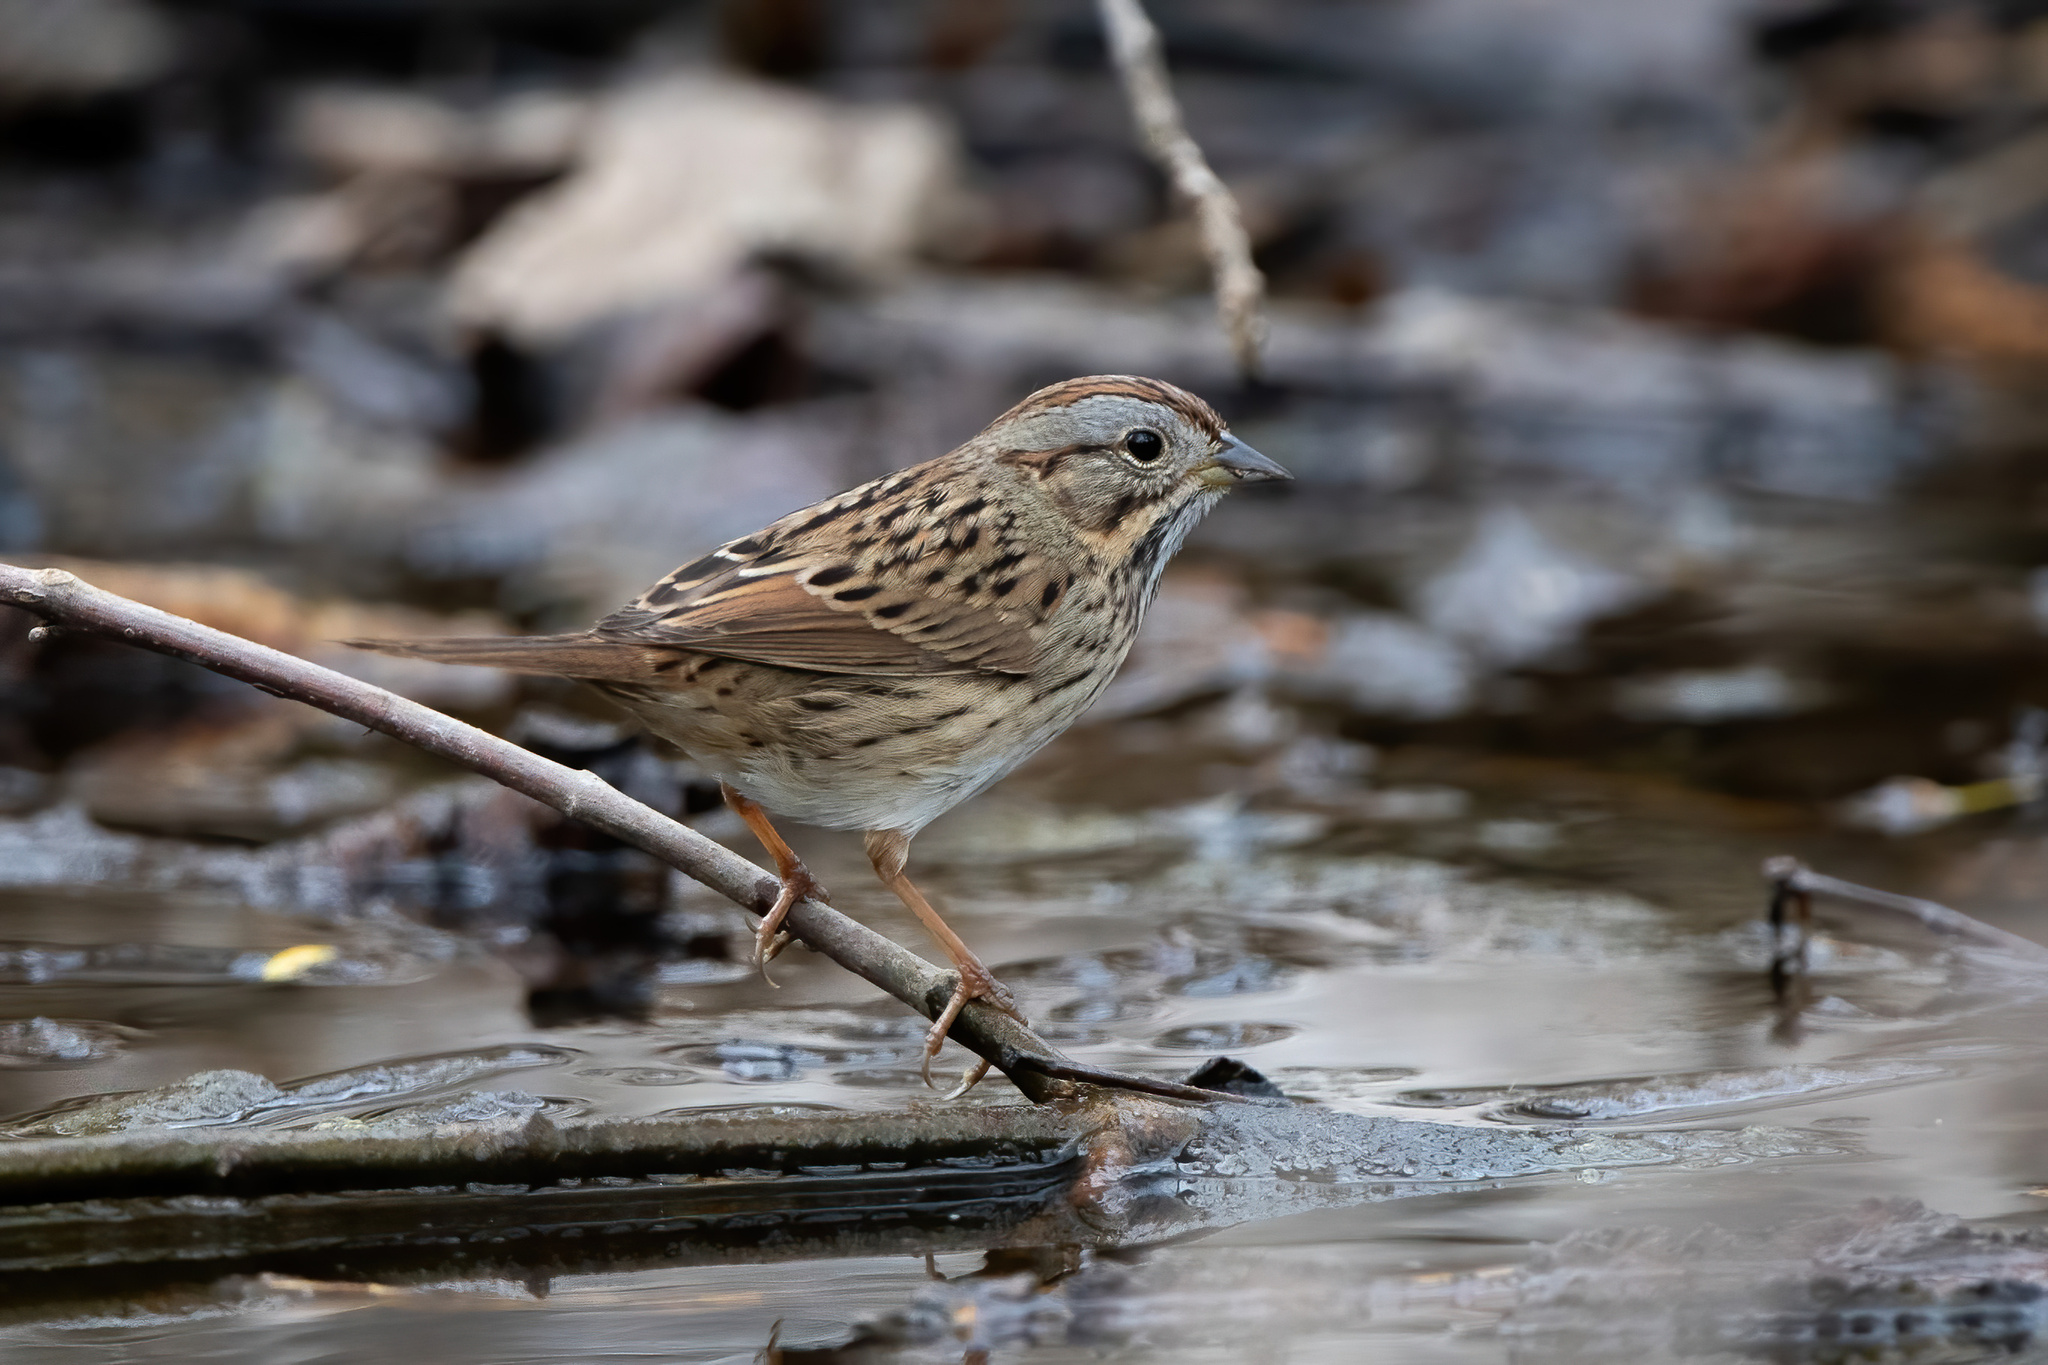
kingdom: Animalia
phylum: Chordata
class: Aves
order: Passeriformes
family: Passerellidae
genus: Melospiza
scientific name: Melospiza lincolnii
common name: Lincoln's sparrow
